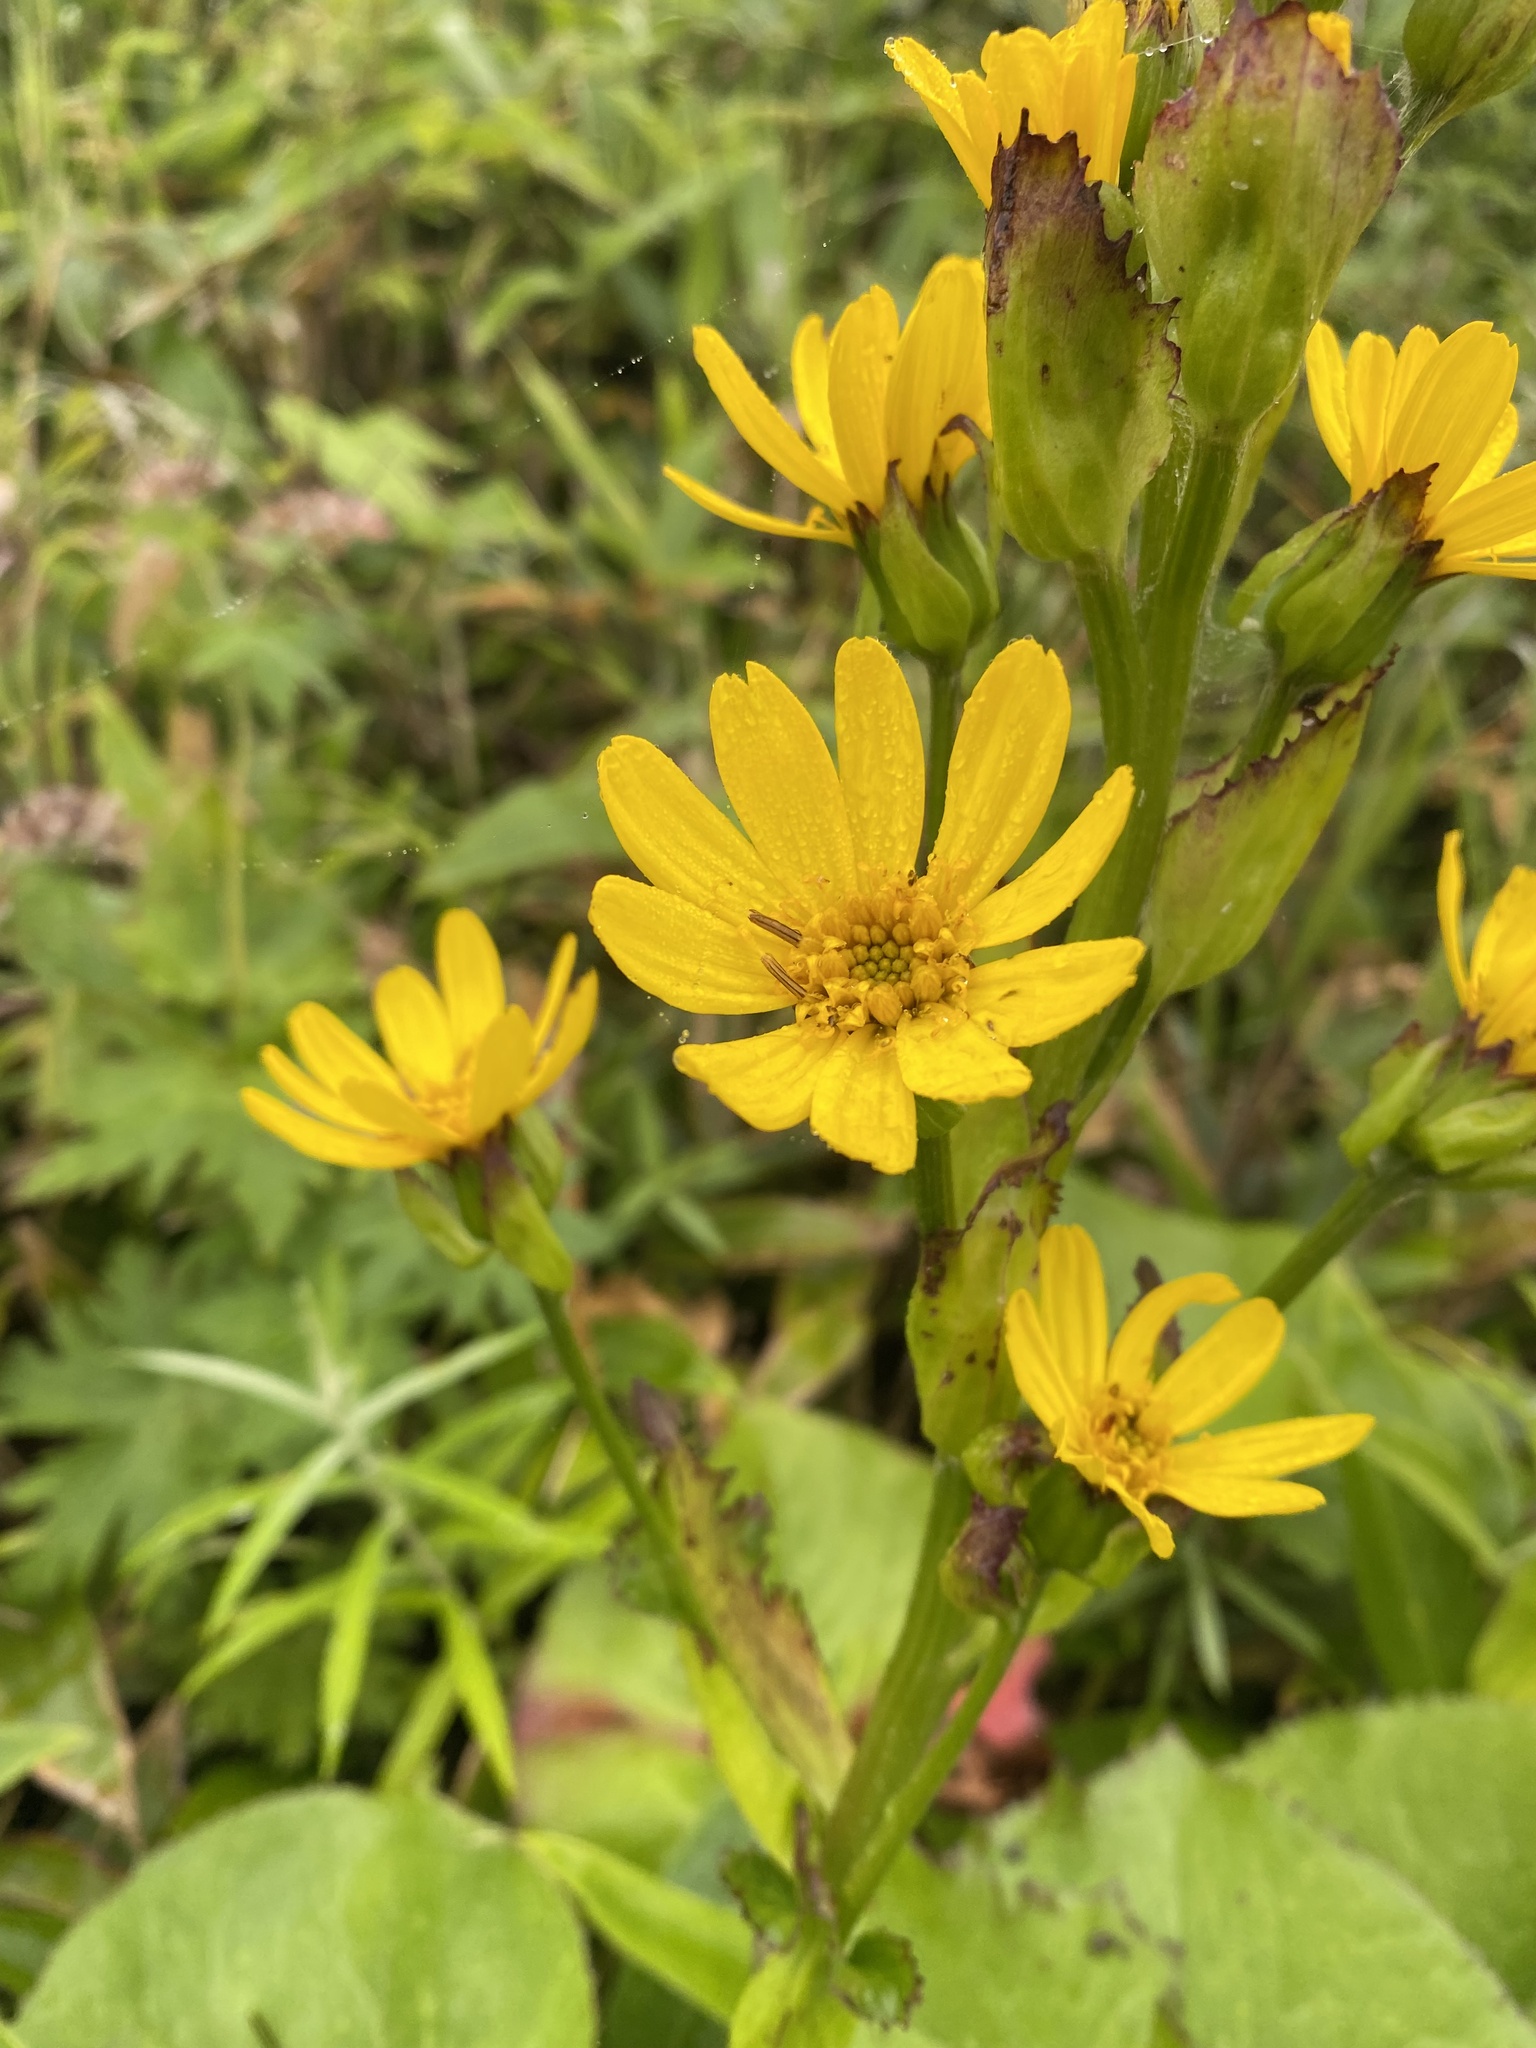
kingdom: Plantae
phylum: Tracheophyta
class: Magnoliopsida
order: Asterales
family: Asteraceae
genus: Ligularia
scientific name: Ligularia hodgsonii
